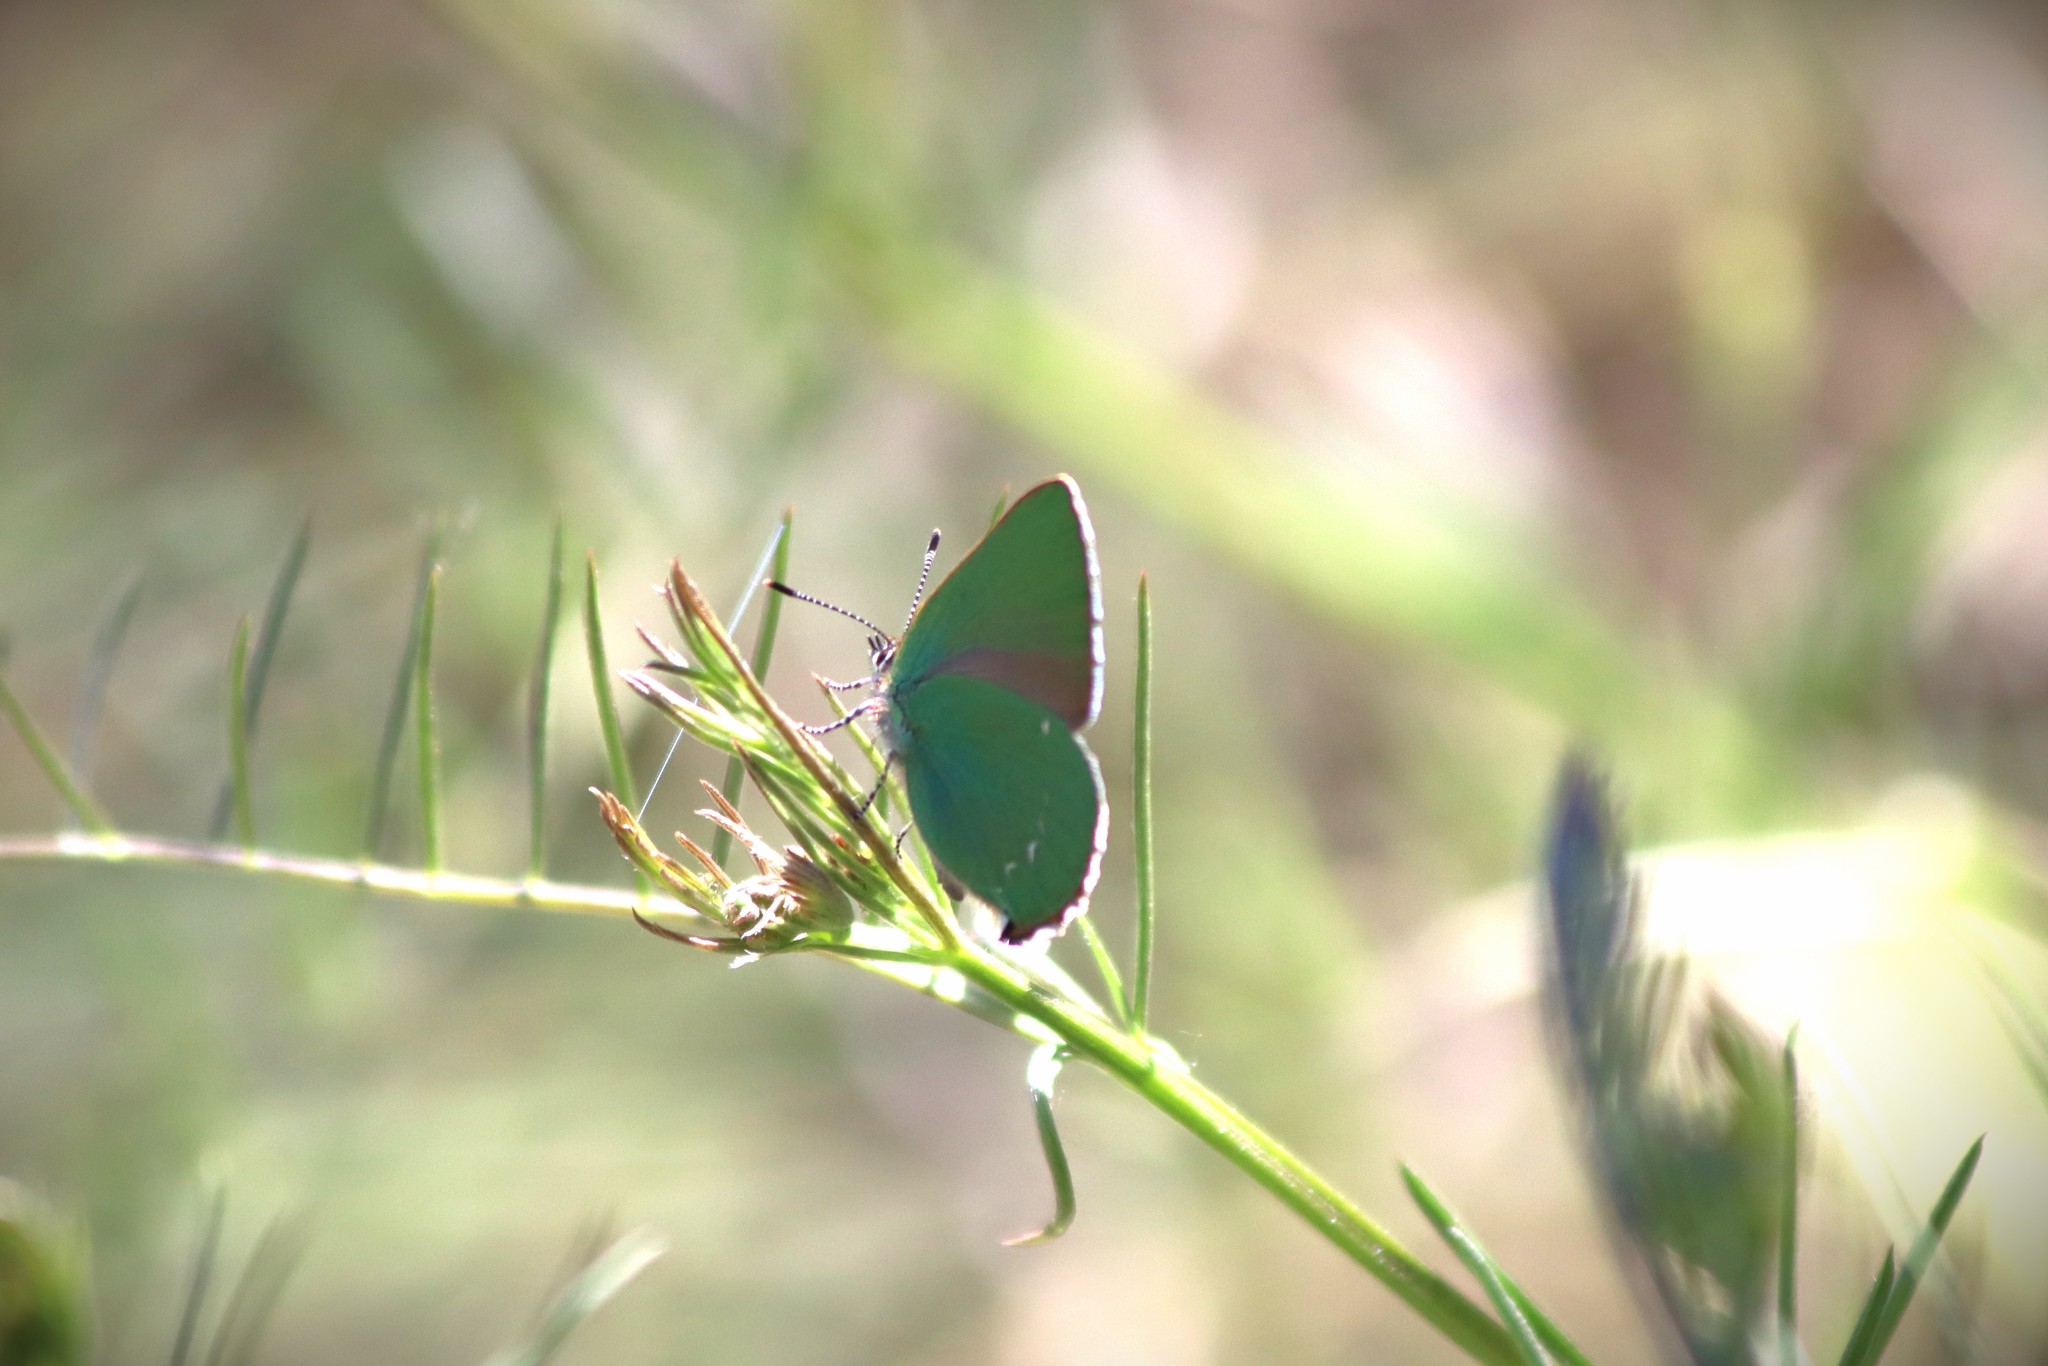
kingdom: Animalia
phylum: Arthropoda
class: Insecta
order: Lepidoptera
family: Lycaenidae
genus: Callophrys
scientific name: Callophrys rubi
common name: Green hairstreak
